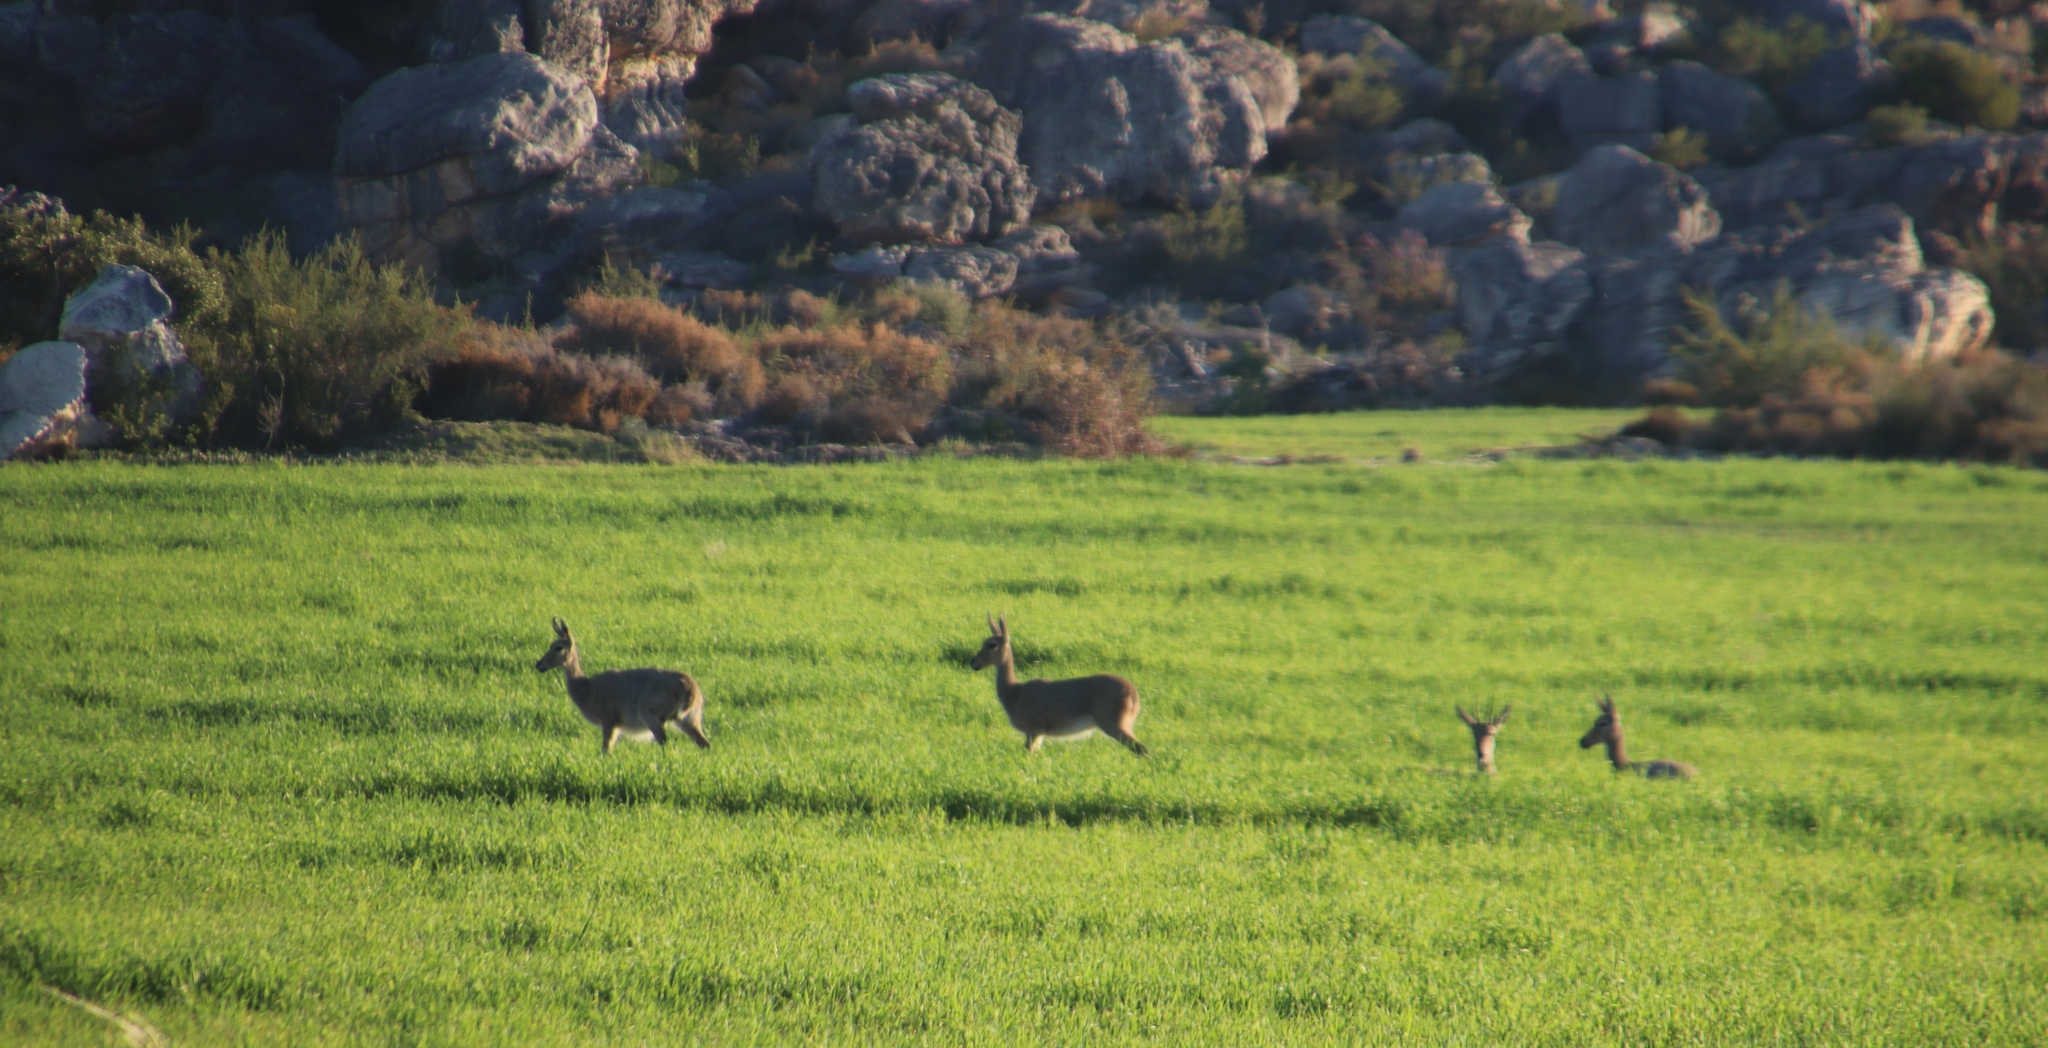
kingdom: Animalia
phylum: Chordata
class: Mammalia
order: Artiodactyla
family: Bovidae
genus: Pelea
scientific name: Pelea capreolus
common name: Common rhebok
